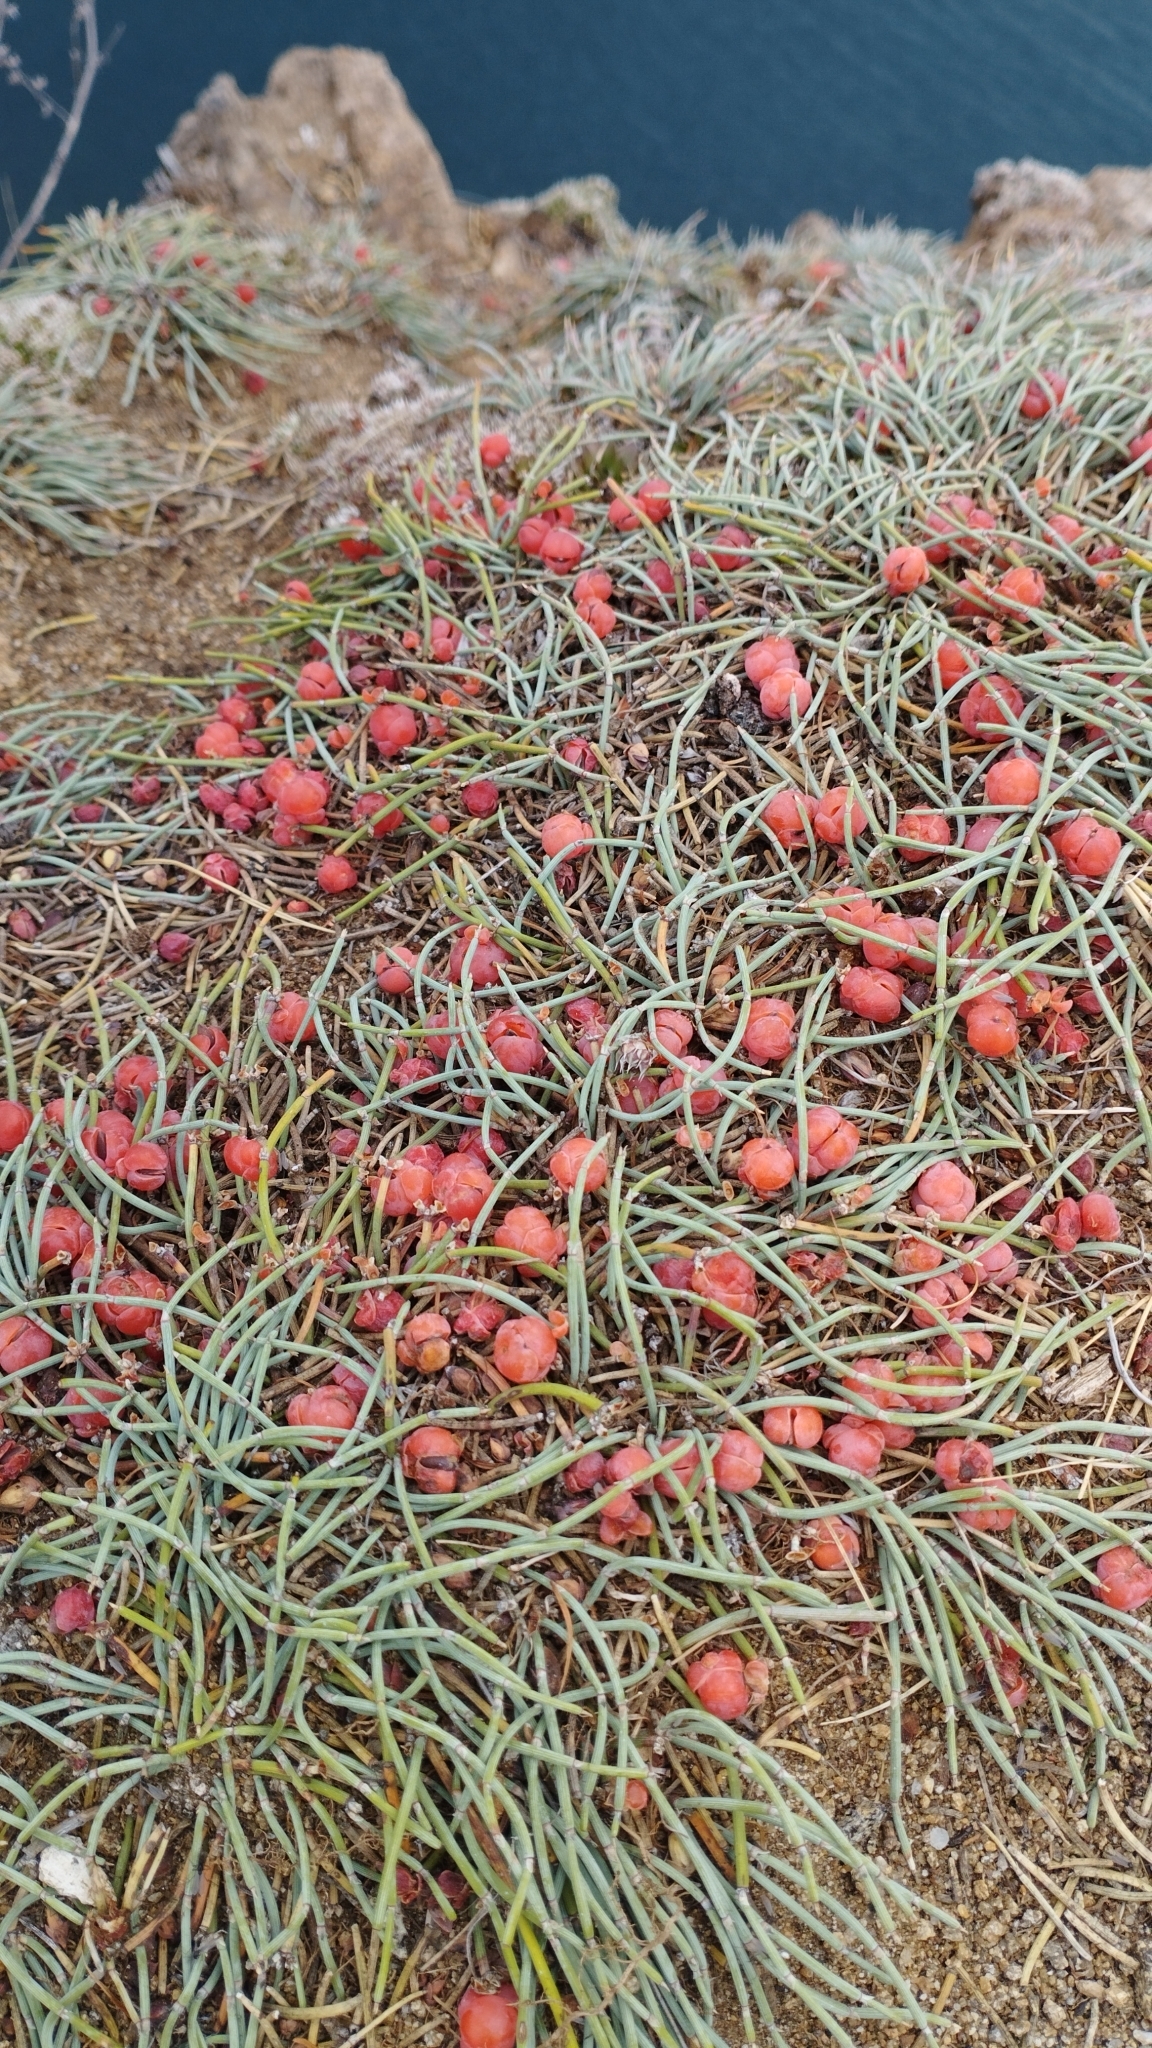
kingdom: Plantae
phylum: Tracheophyta
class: Gnetopsida
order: Ephedrales
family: Ephedraceae
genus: Ephedra
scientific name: Ephedra monosperma
